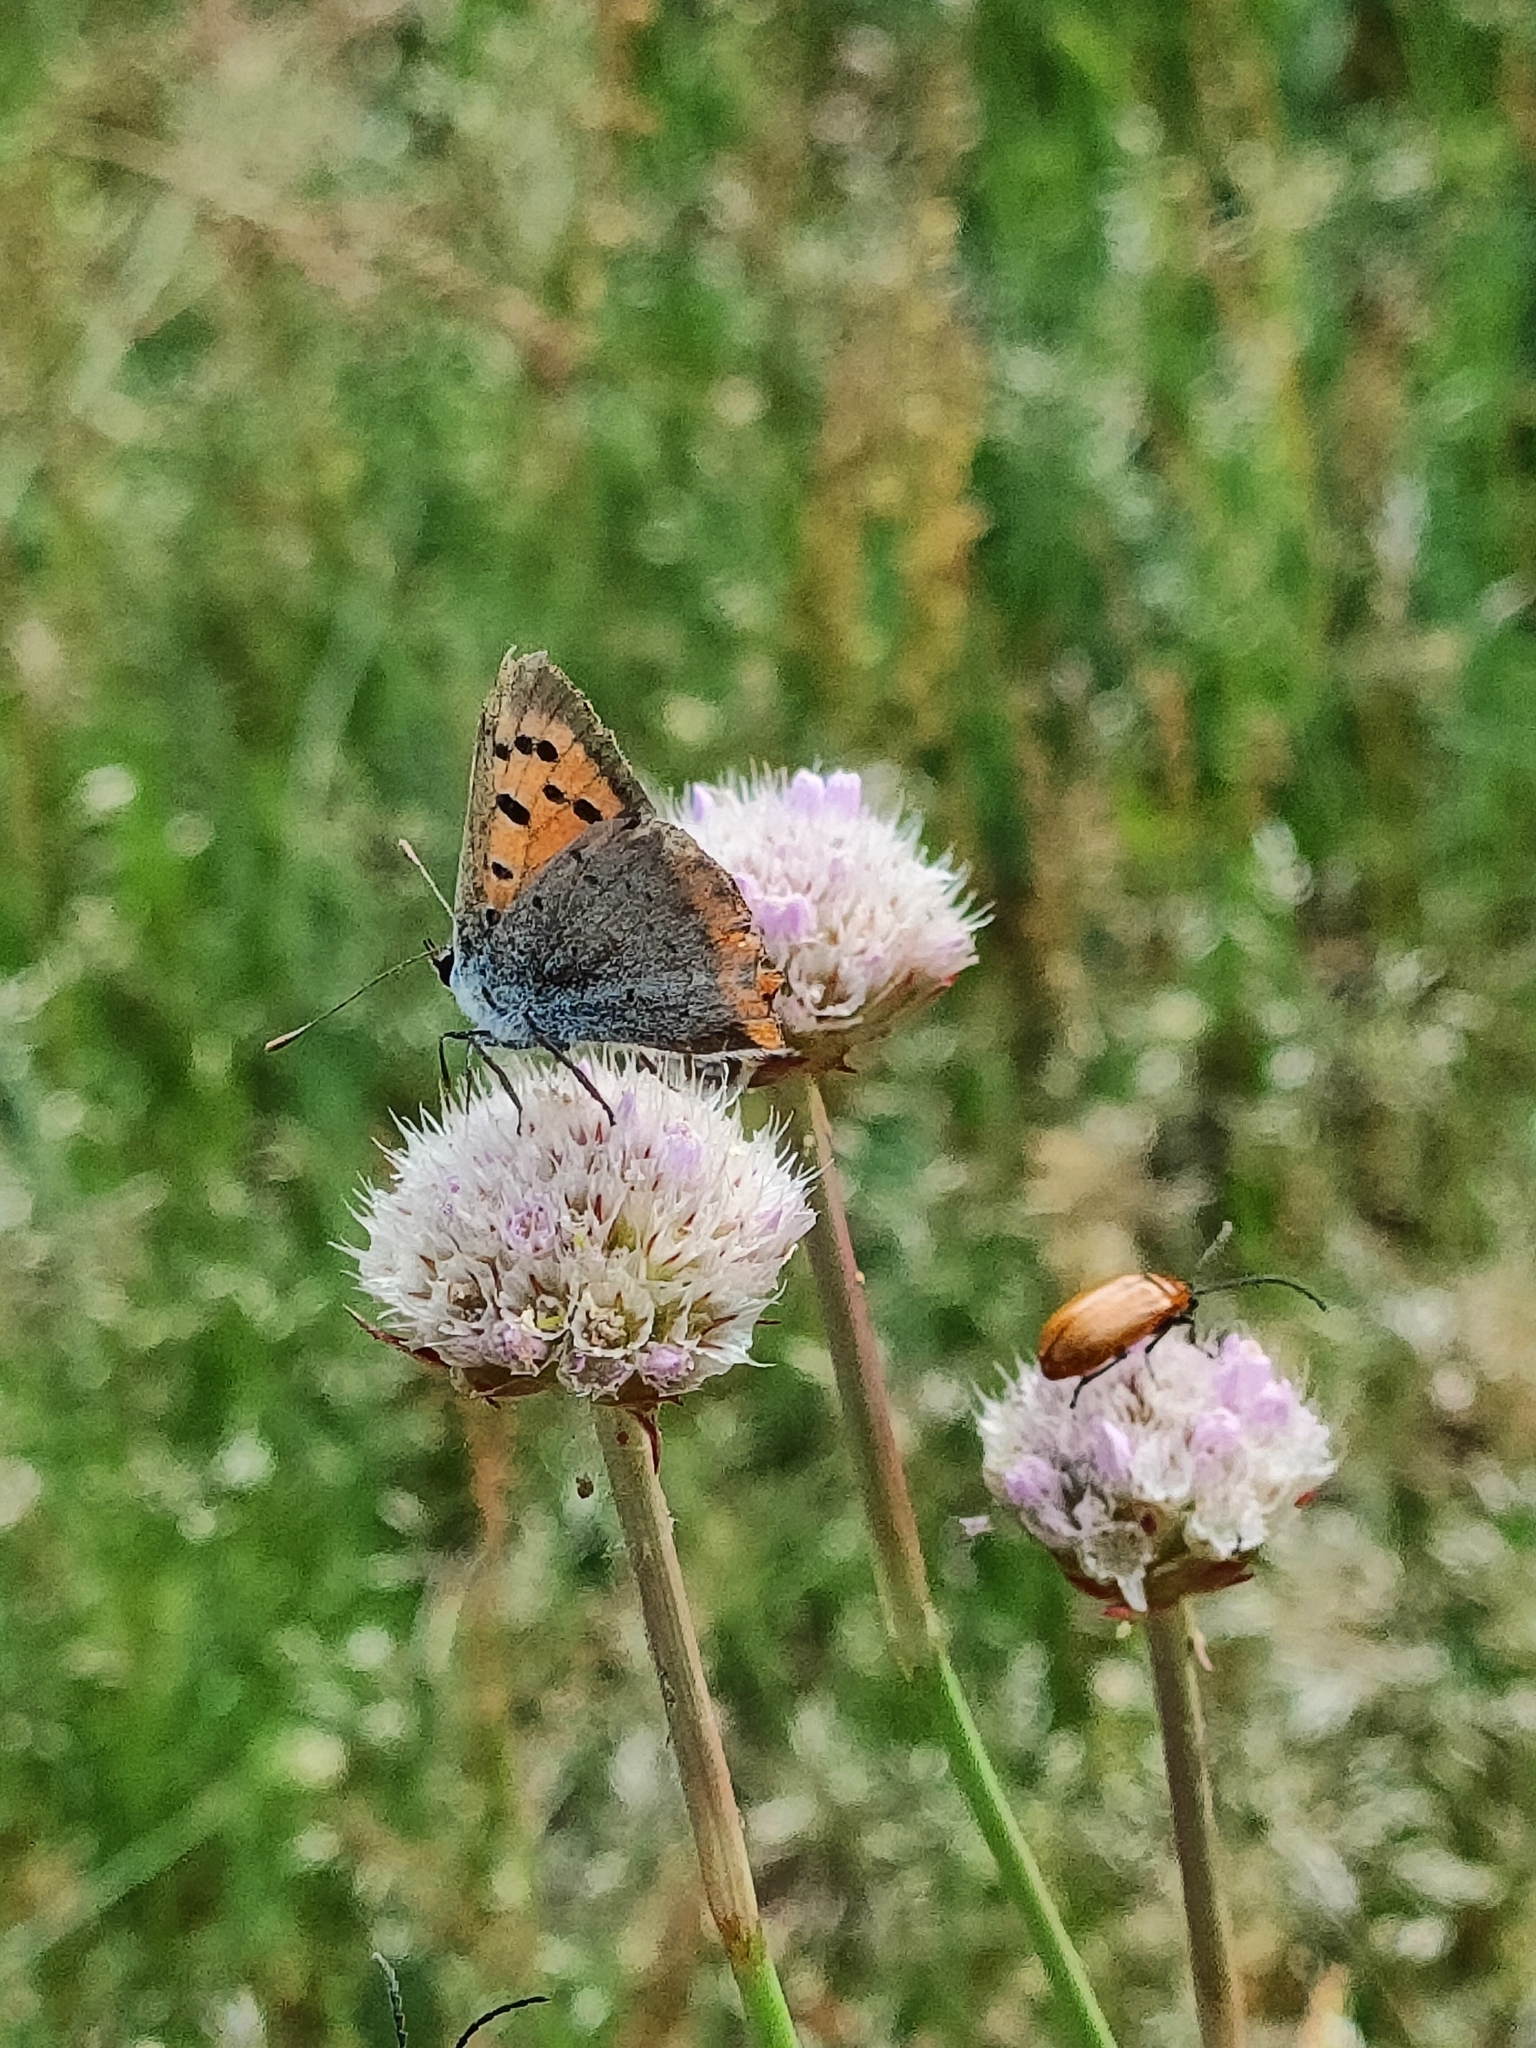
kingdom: Animalia
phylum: Arthropoda
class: Insecta
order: Lepidoptera
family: Lycaenidae
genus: Lycaena
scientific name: Lycaena phlaeas
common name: Small copper
